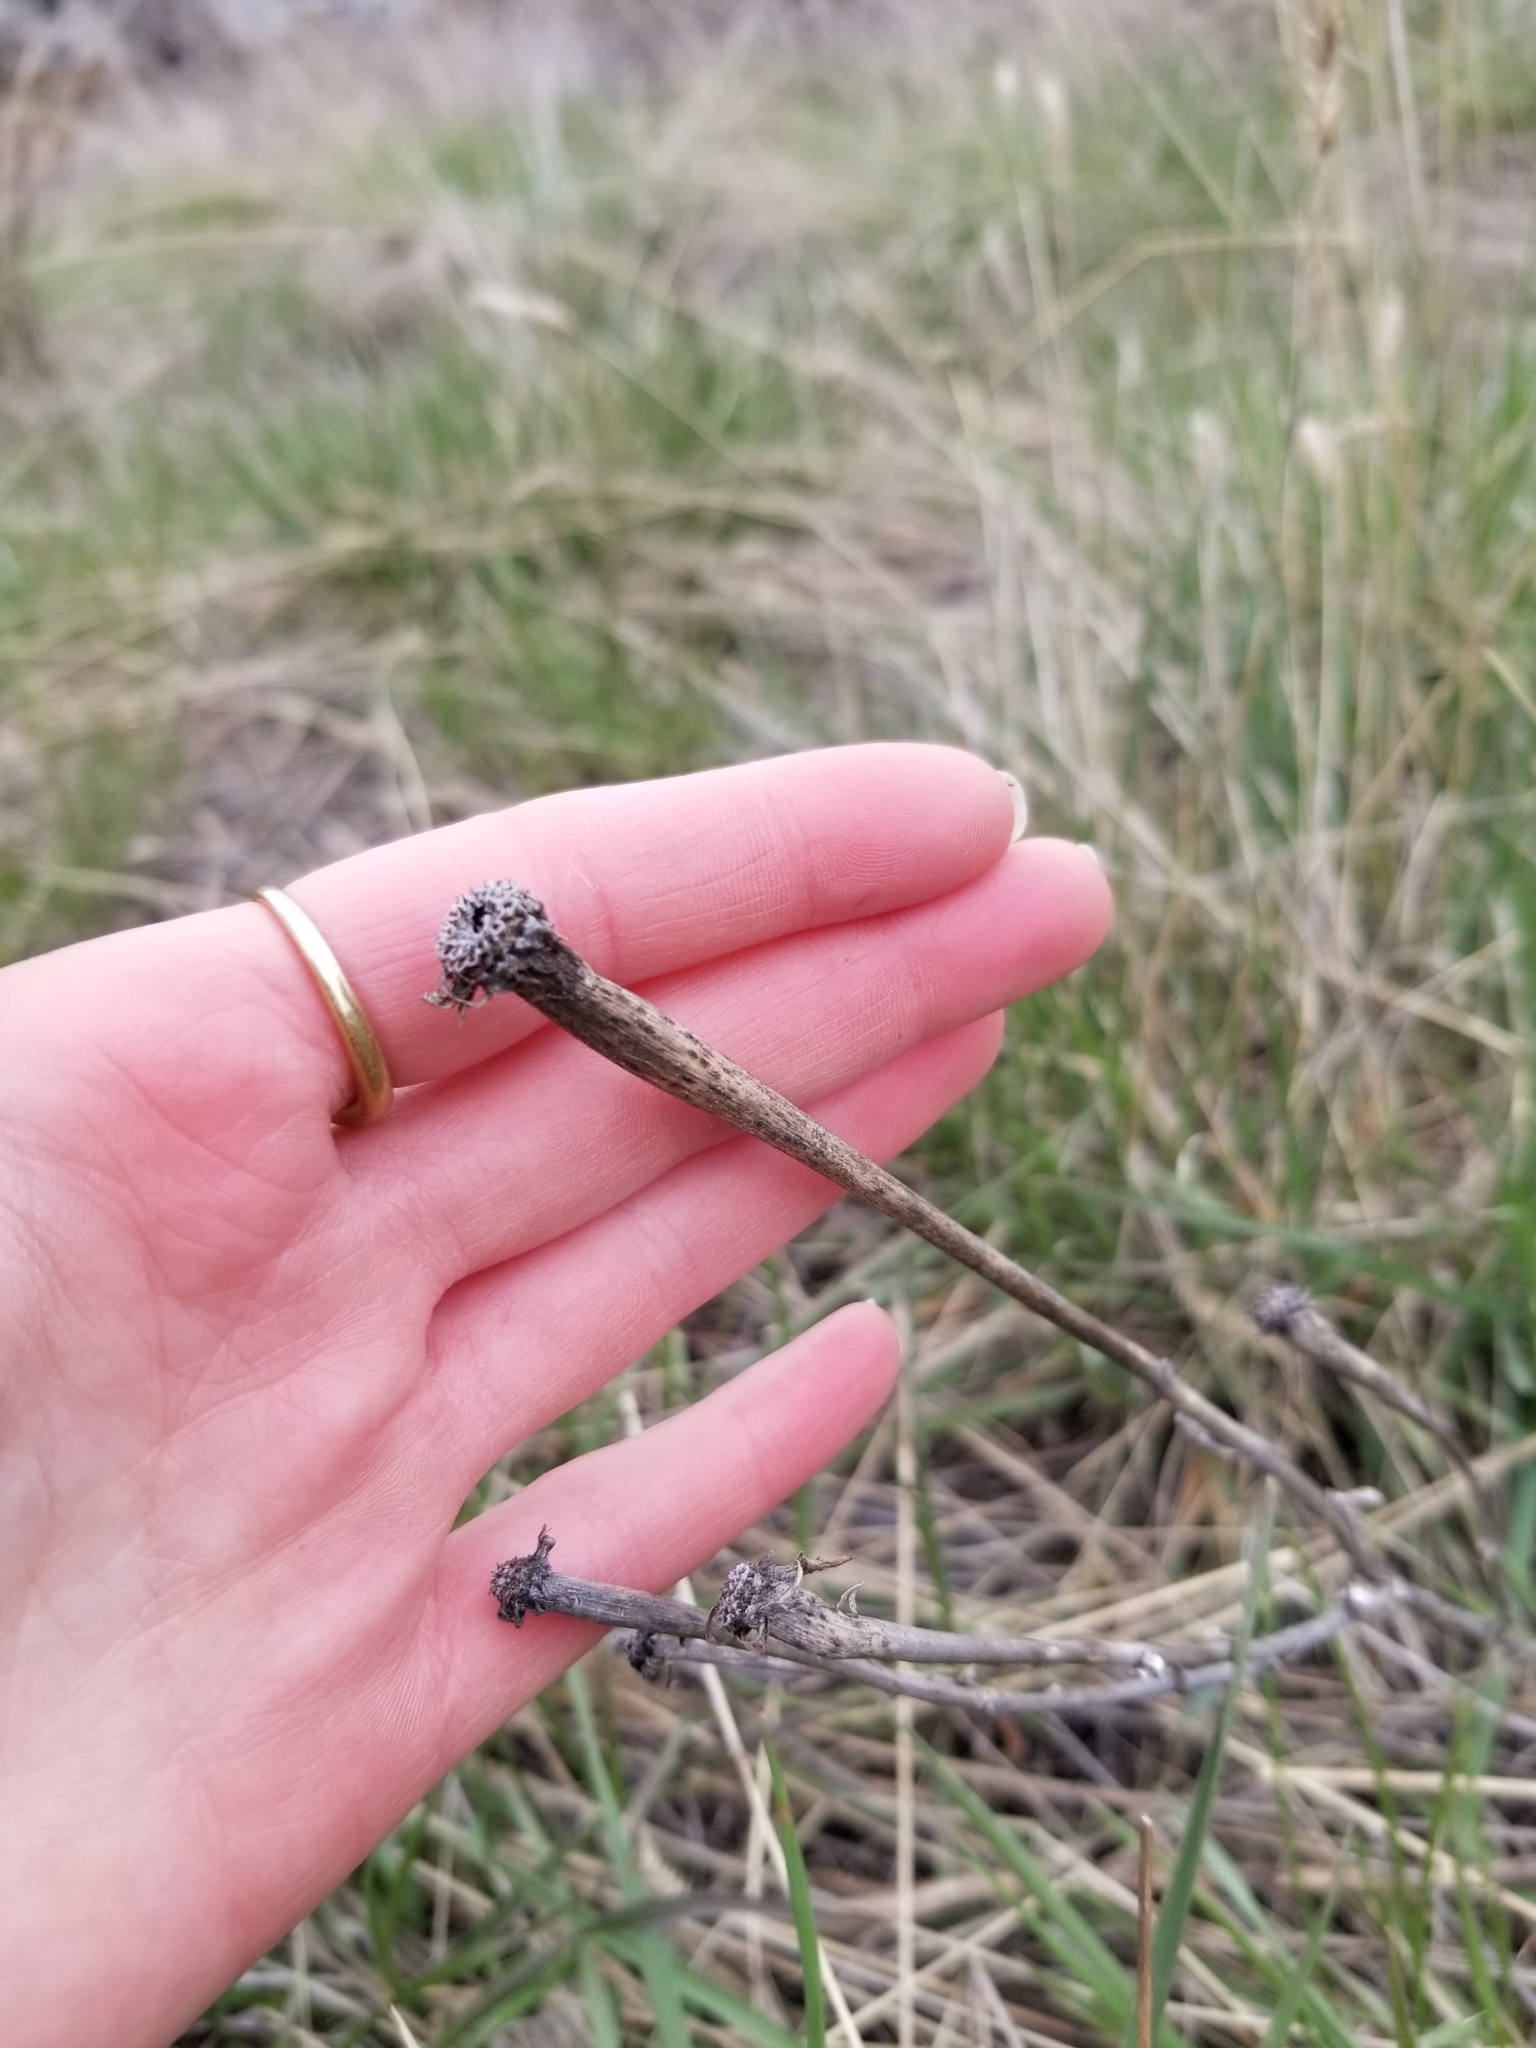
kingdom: Plantae
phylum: Tracheophyta
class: Magnoliopsida
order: Asterales
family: Asteraceae
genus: Tragopogon
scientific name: Tragopogon dubius
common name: Yellow salsify
